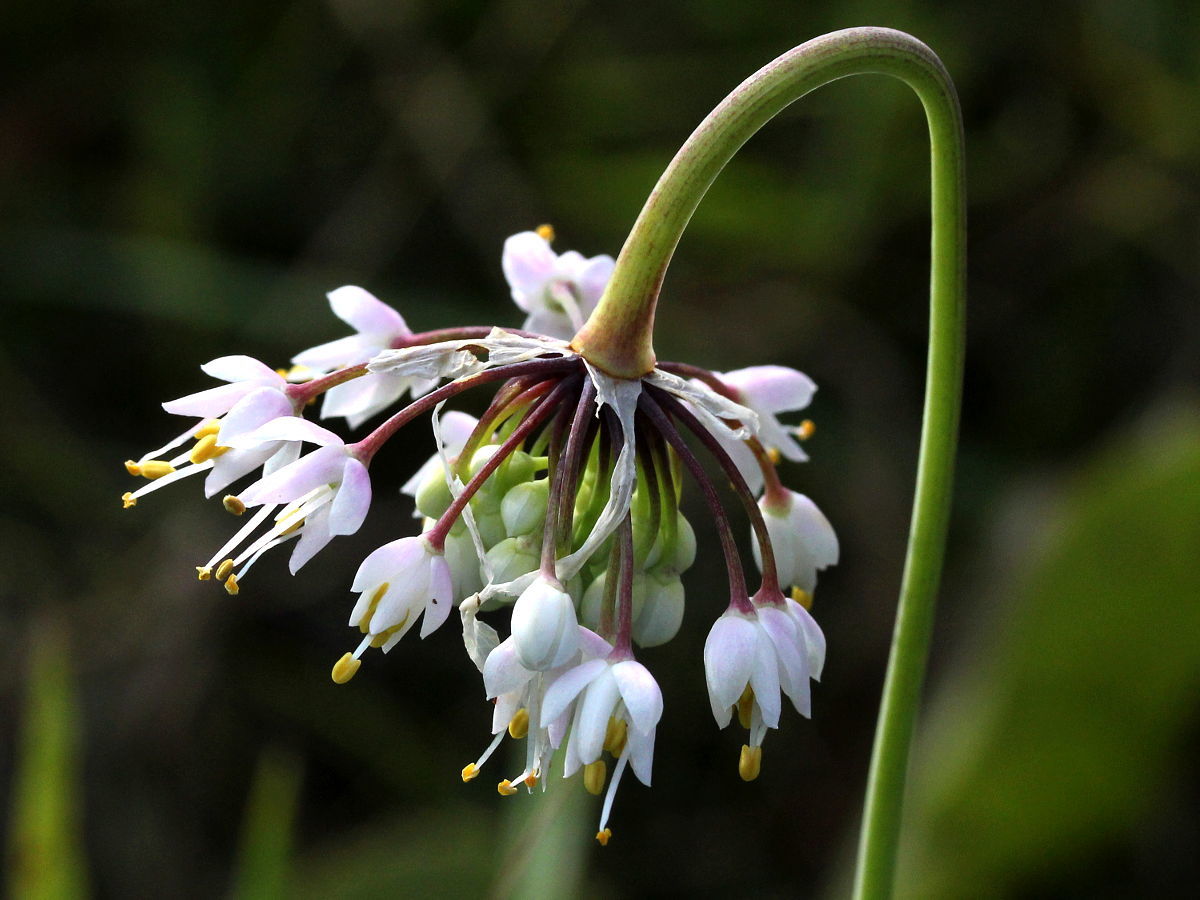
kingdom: Plantae
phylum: Tracheophyta
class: Liliopsida
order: Asparagales
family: Amaryllidaceae
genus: Allium
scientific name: Allium cernuum
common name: Nodding onion
